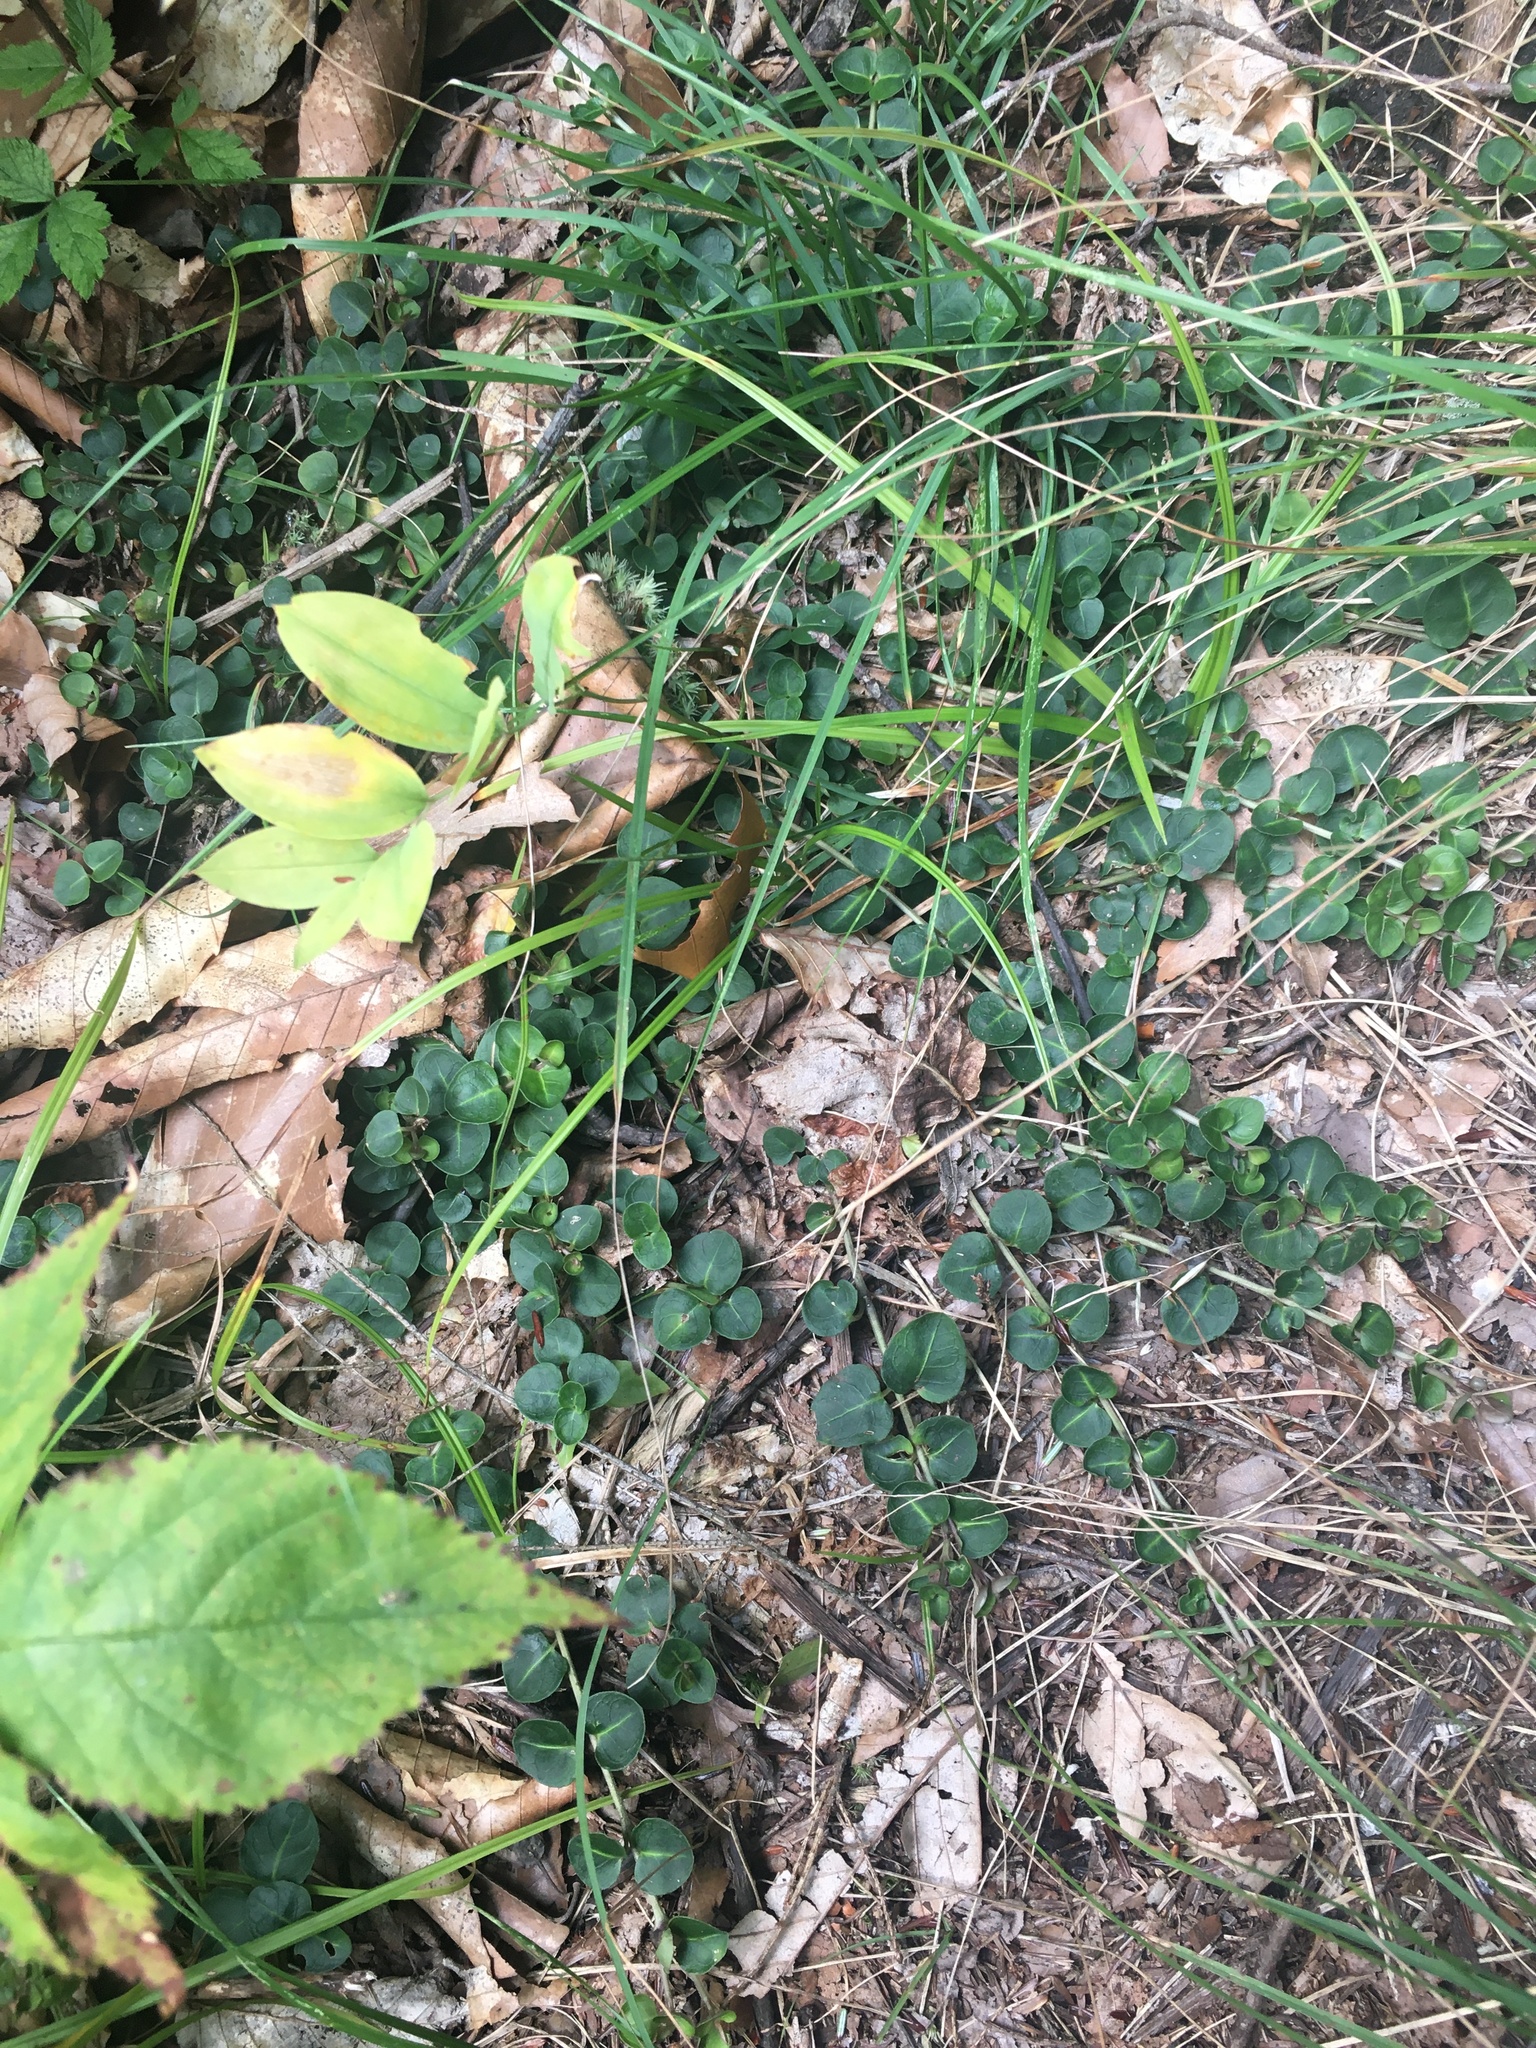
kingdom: Plantae
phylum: Tracheophyta
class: Magnoliopsida
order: Gentianales
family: Rubiaceae
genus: Mitchella
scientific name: Mitchella repens
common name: Partridge-berry
